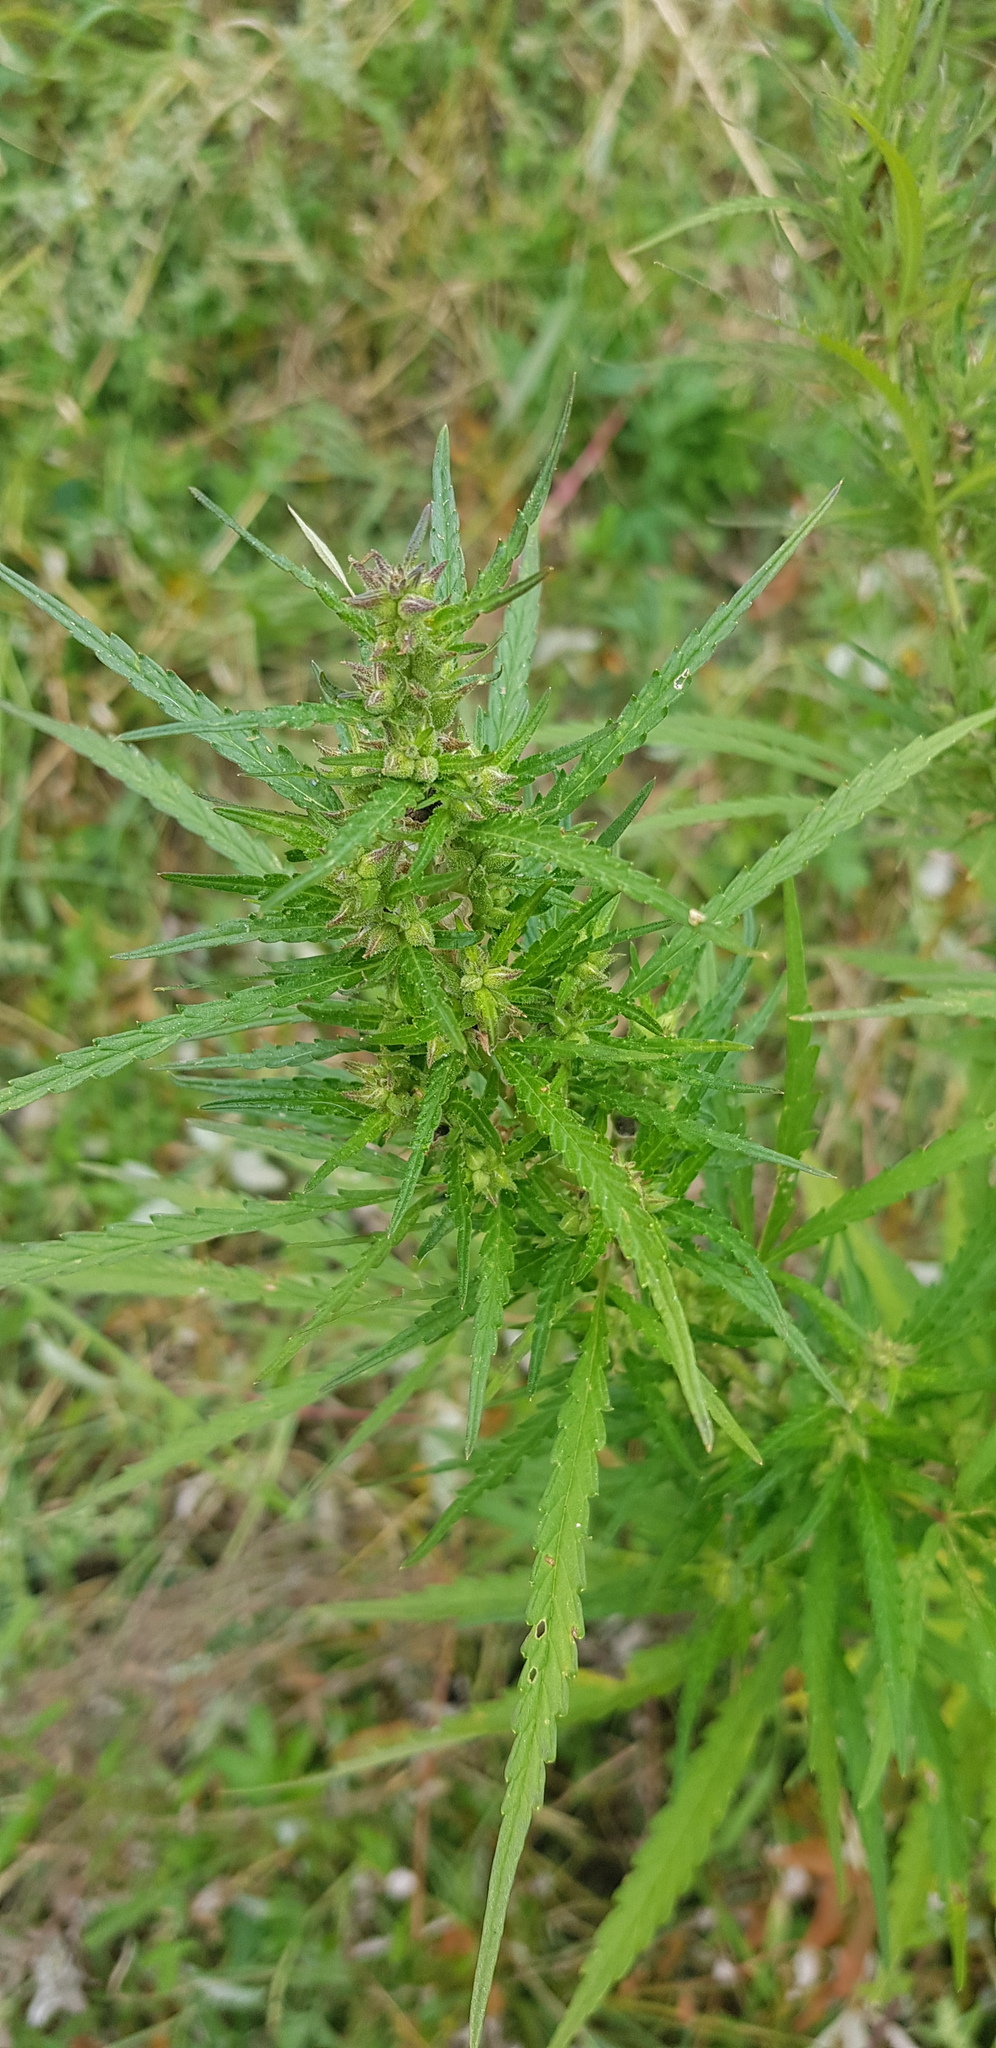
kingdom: Plantae
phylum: Tracheophyta
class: Magnoliopsida
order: Rosales
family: Cannabaceae
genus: Cannabis
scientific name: Cannabis sativa
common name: Hemp
